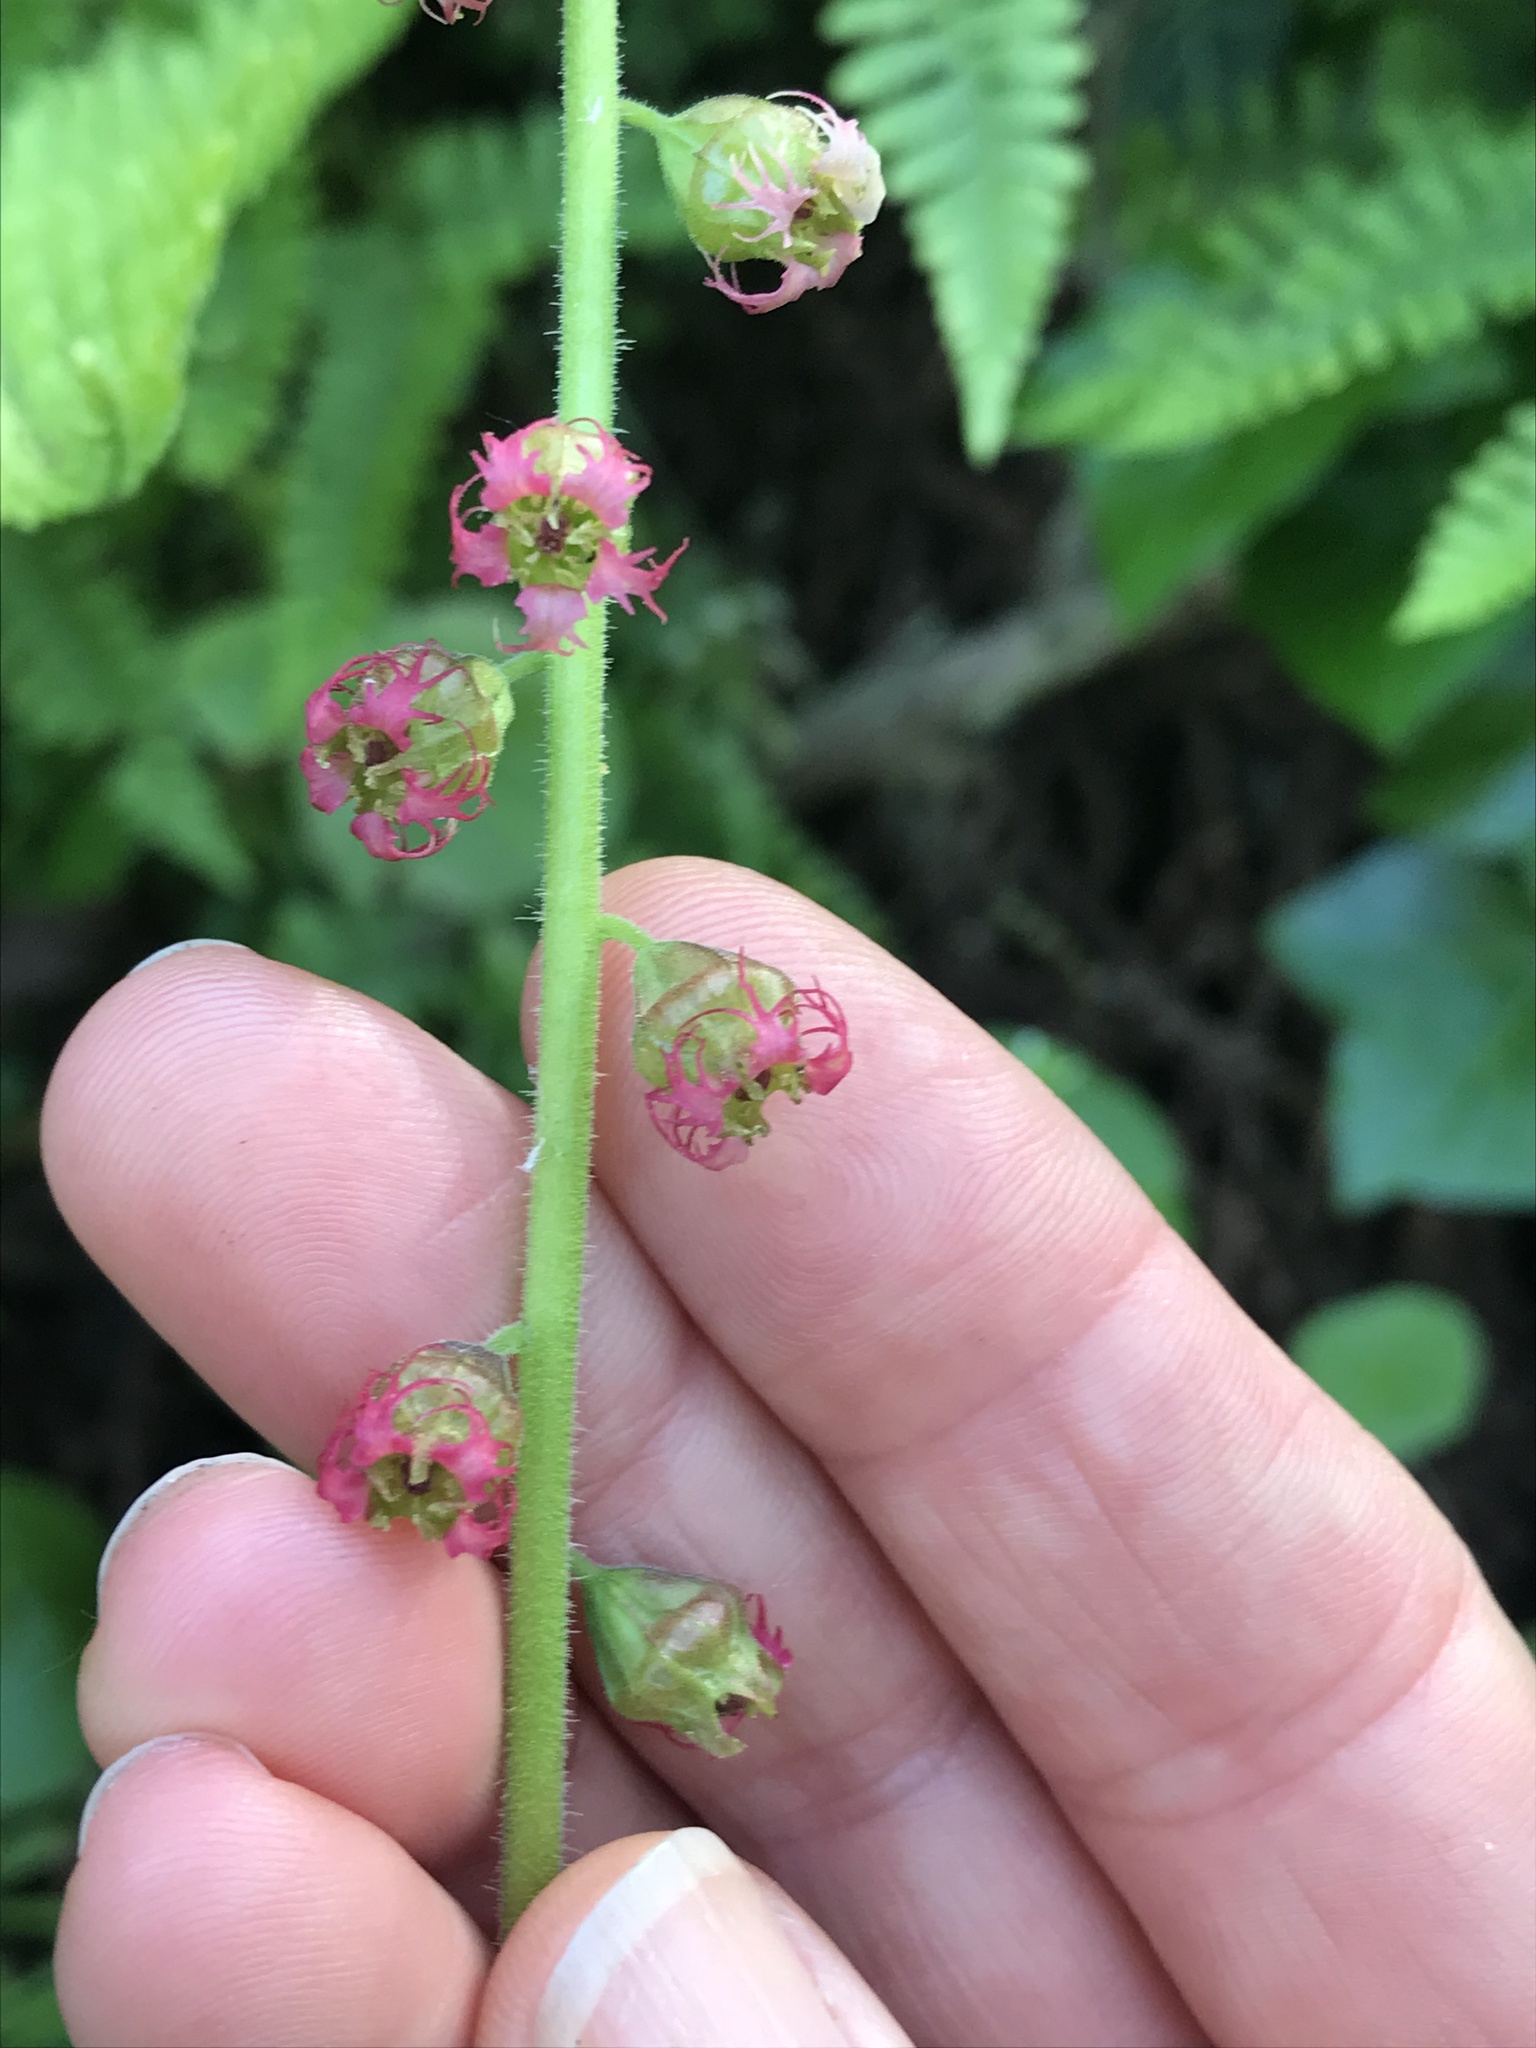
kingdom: Plantae
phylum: Tracheophyta
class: Magnoliopsida
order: Saxifragales
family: Saxifragaceae
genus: Tellima
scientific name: Tellima grandiflora
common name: Fringecups
